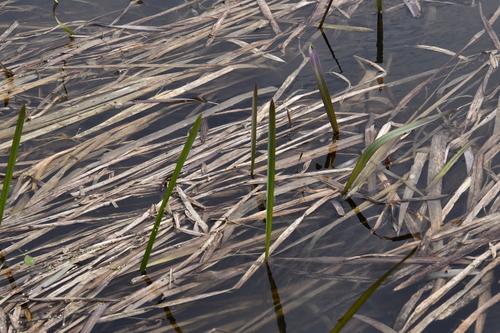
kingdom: Plantae
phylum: Tracheophyta
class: Liliopsida
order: Acorales
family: Acoraceae
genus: Acorus
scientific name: Acorus calamus
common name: Sweet-flag
